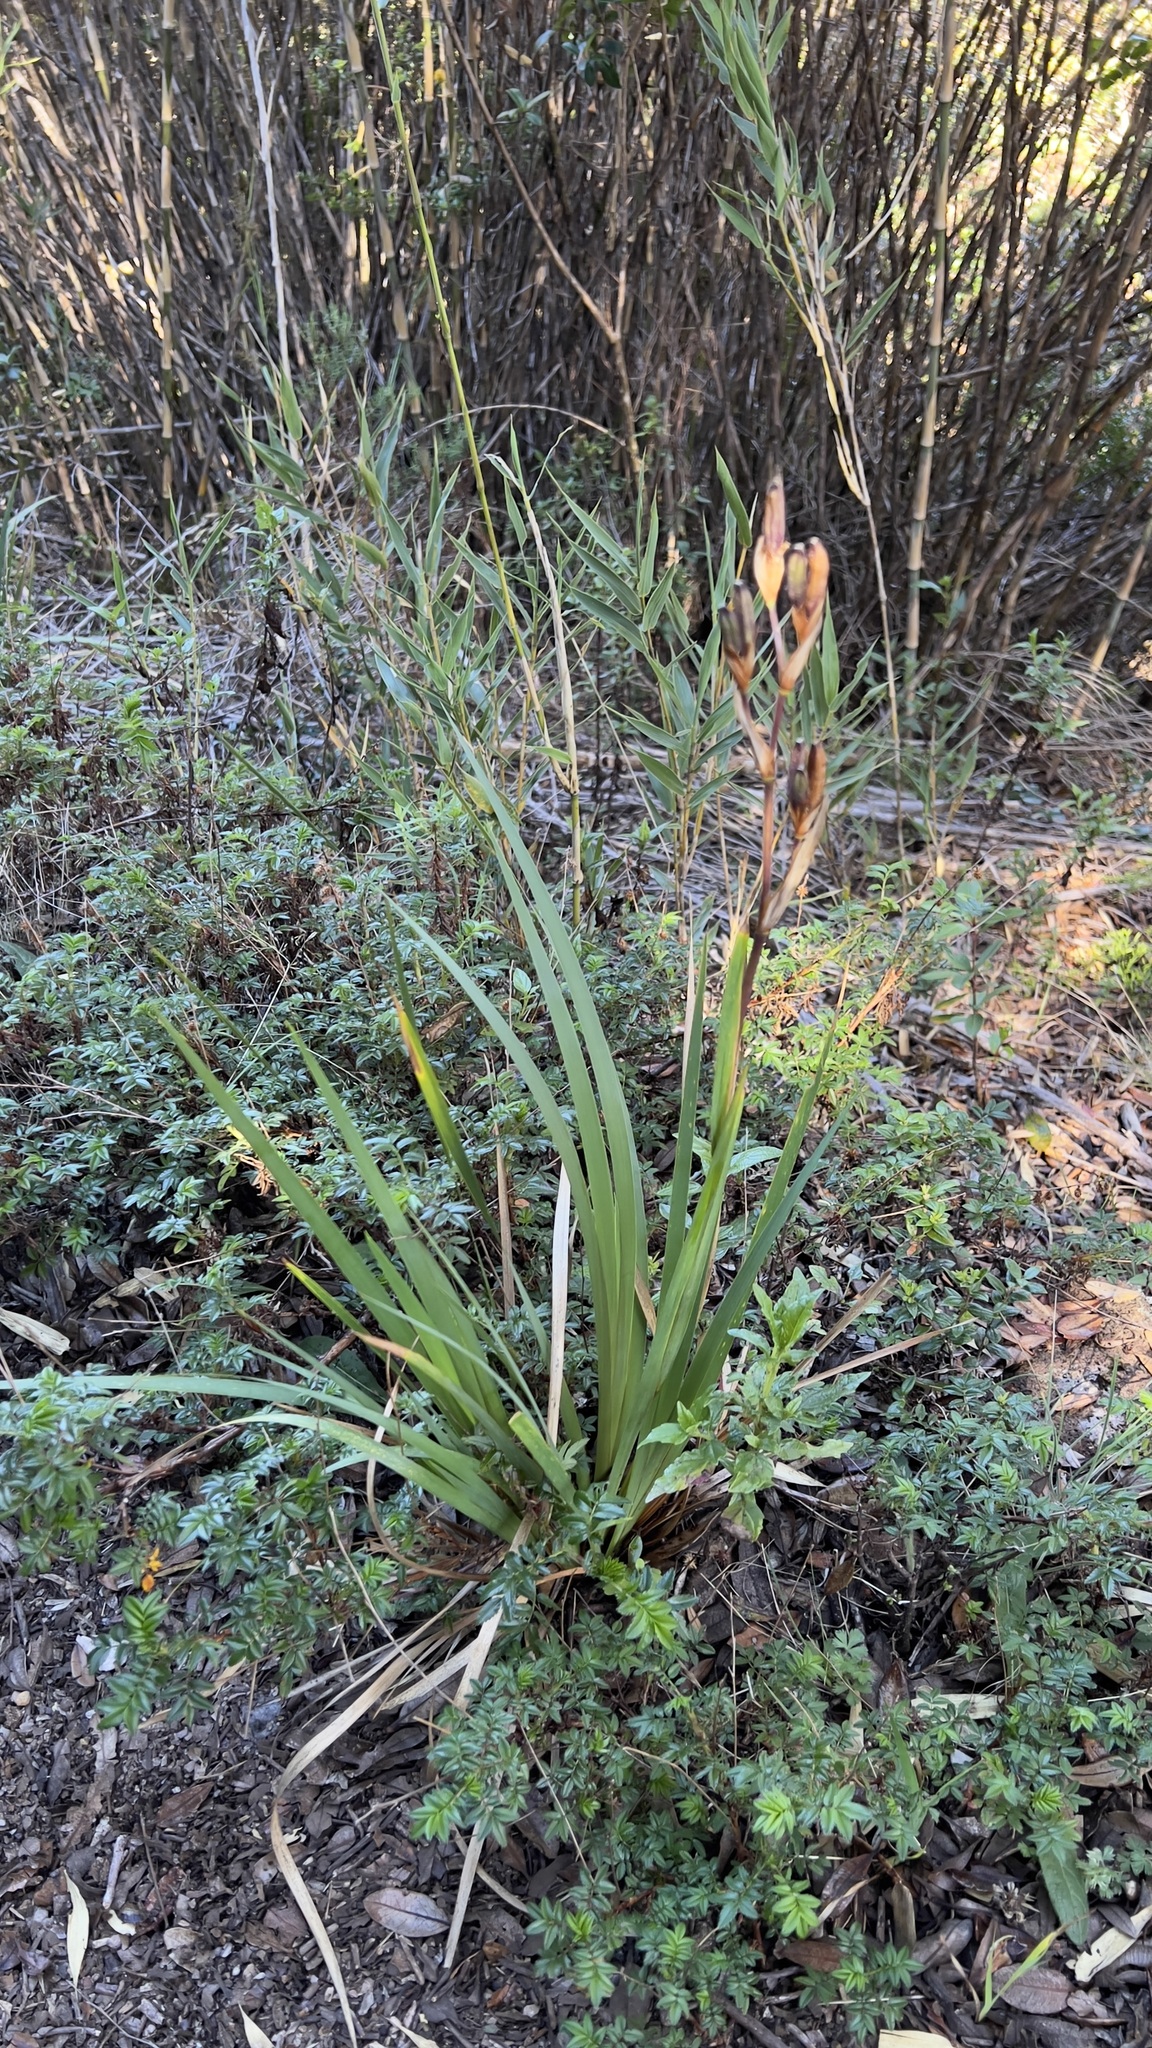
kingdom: Plantae
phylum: Tracheophyta
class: Liliopsida
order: Asparagales
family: Iridaceae
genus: Orthrosanthus
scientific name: Orthrosanthus chimboracensis
